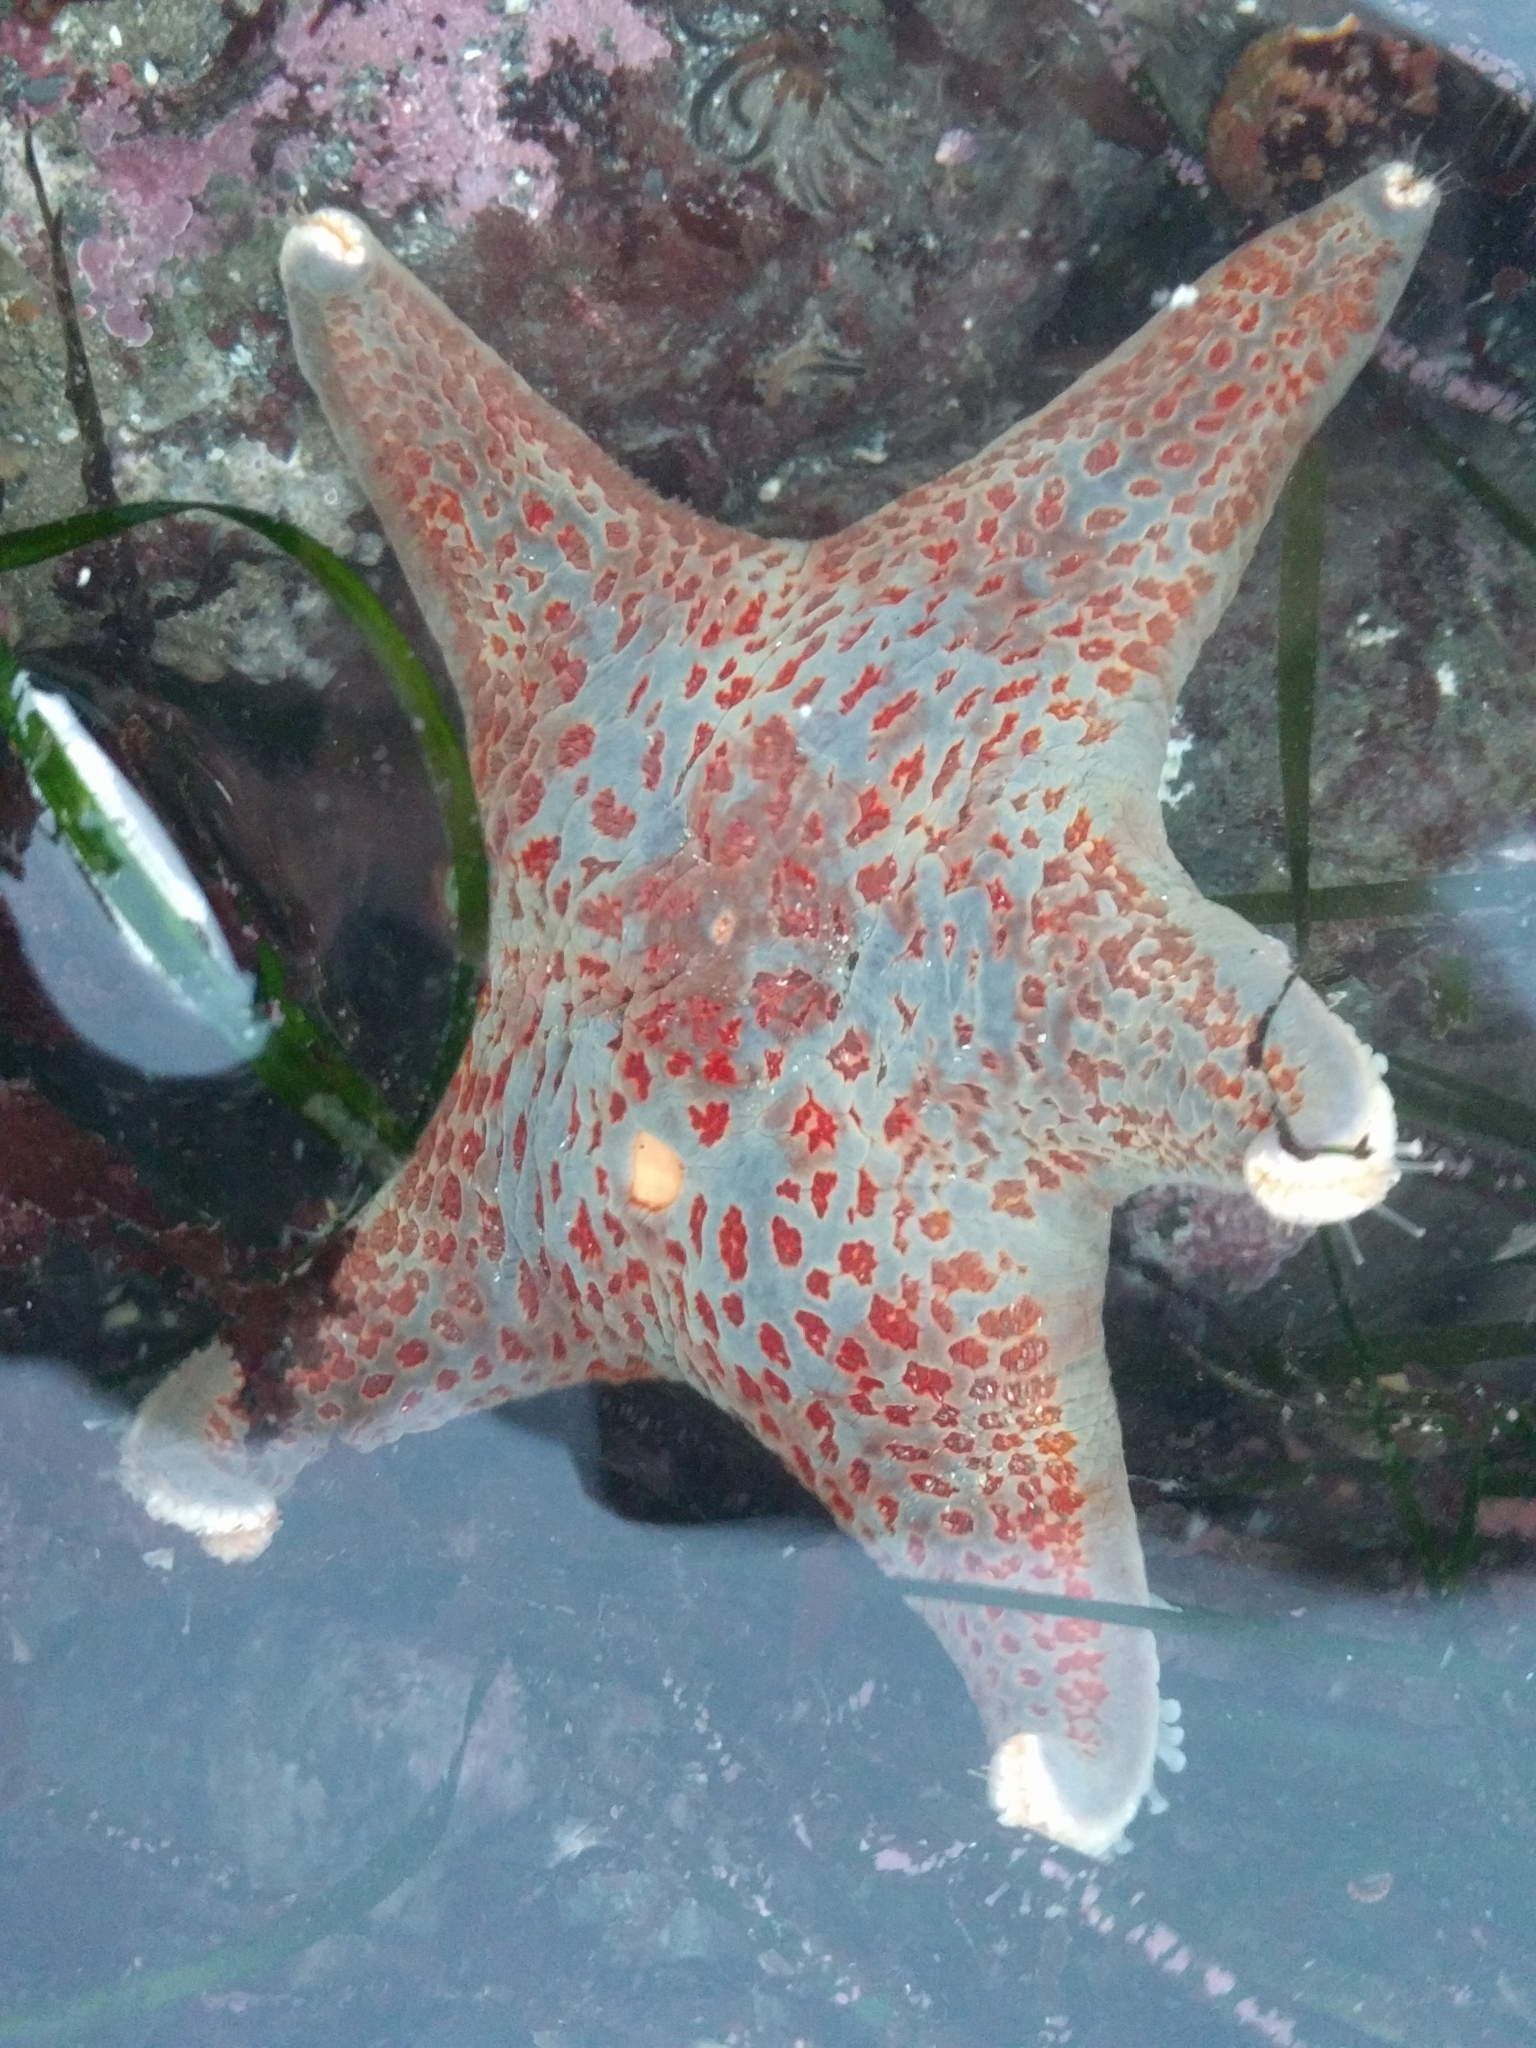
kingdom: Animalia
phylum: Echinodermata
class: Asteroidea
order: Valvatida
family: Asteropseidae
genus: Dermasterias
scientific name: Dermasterias imbricata
